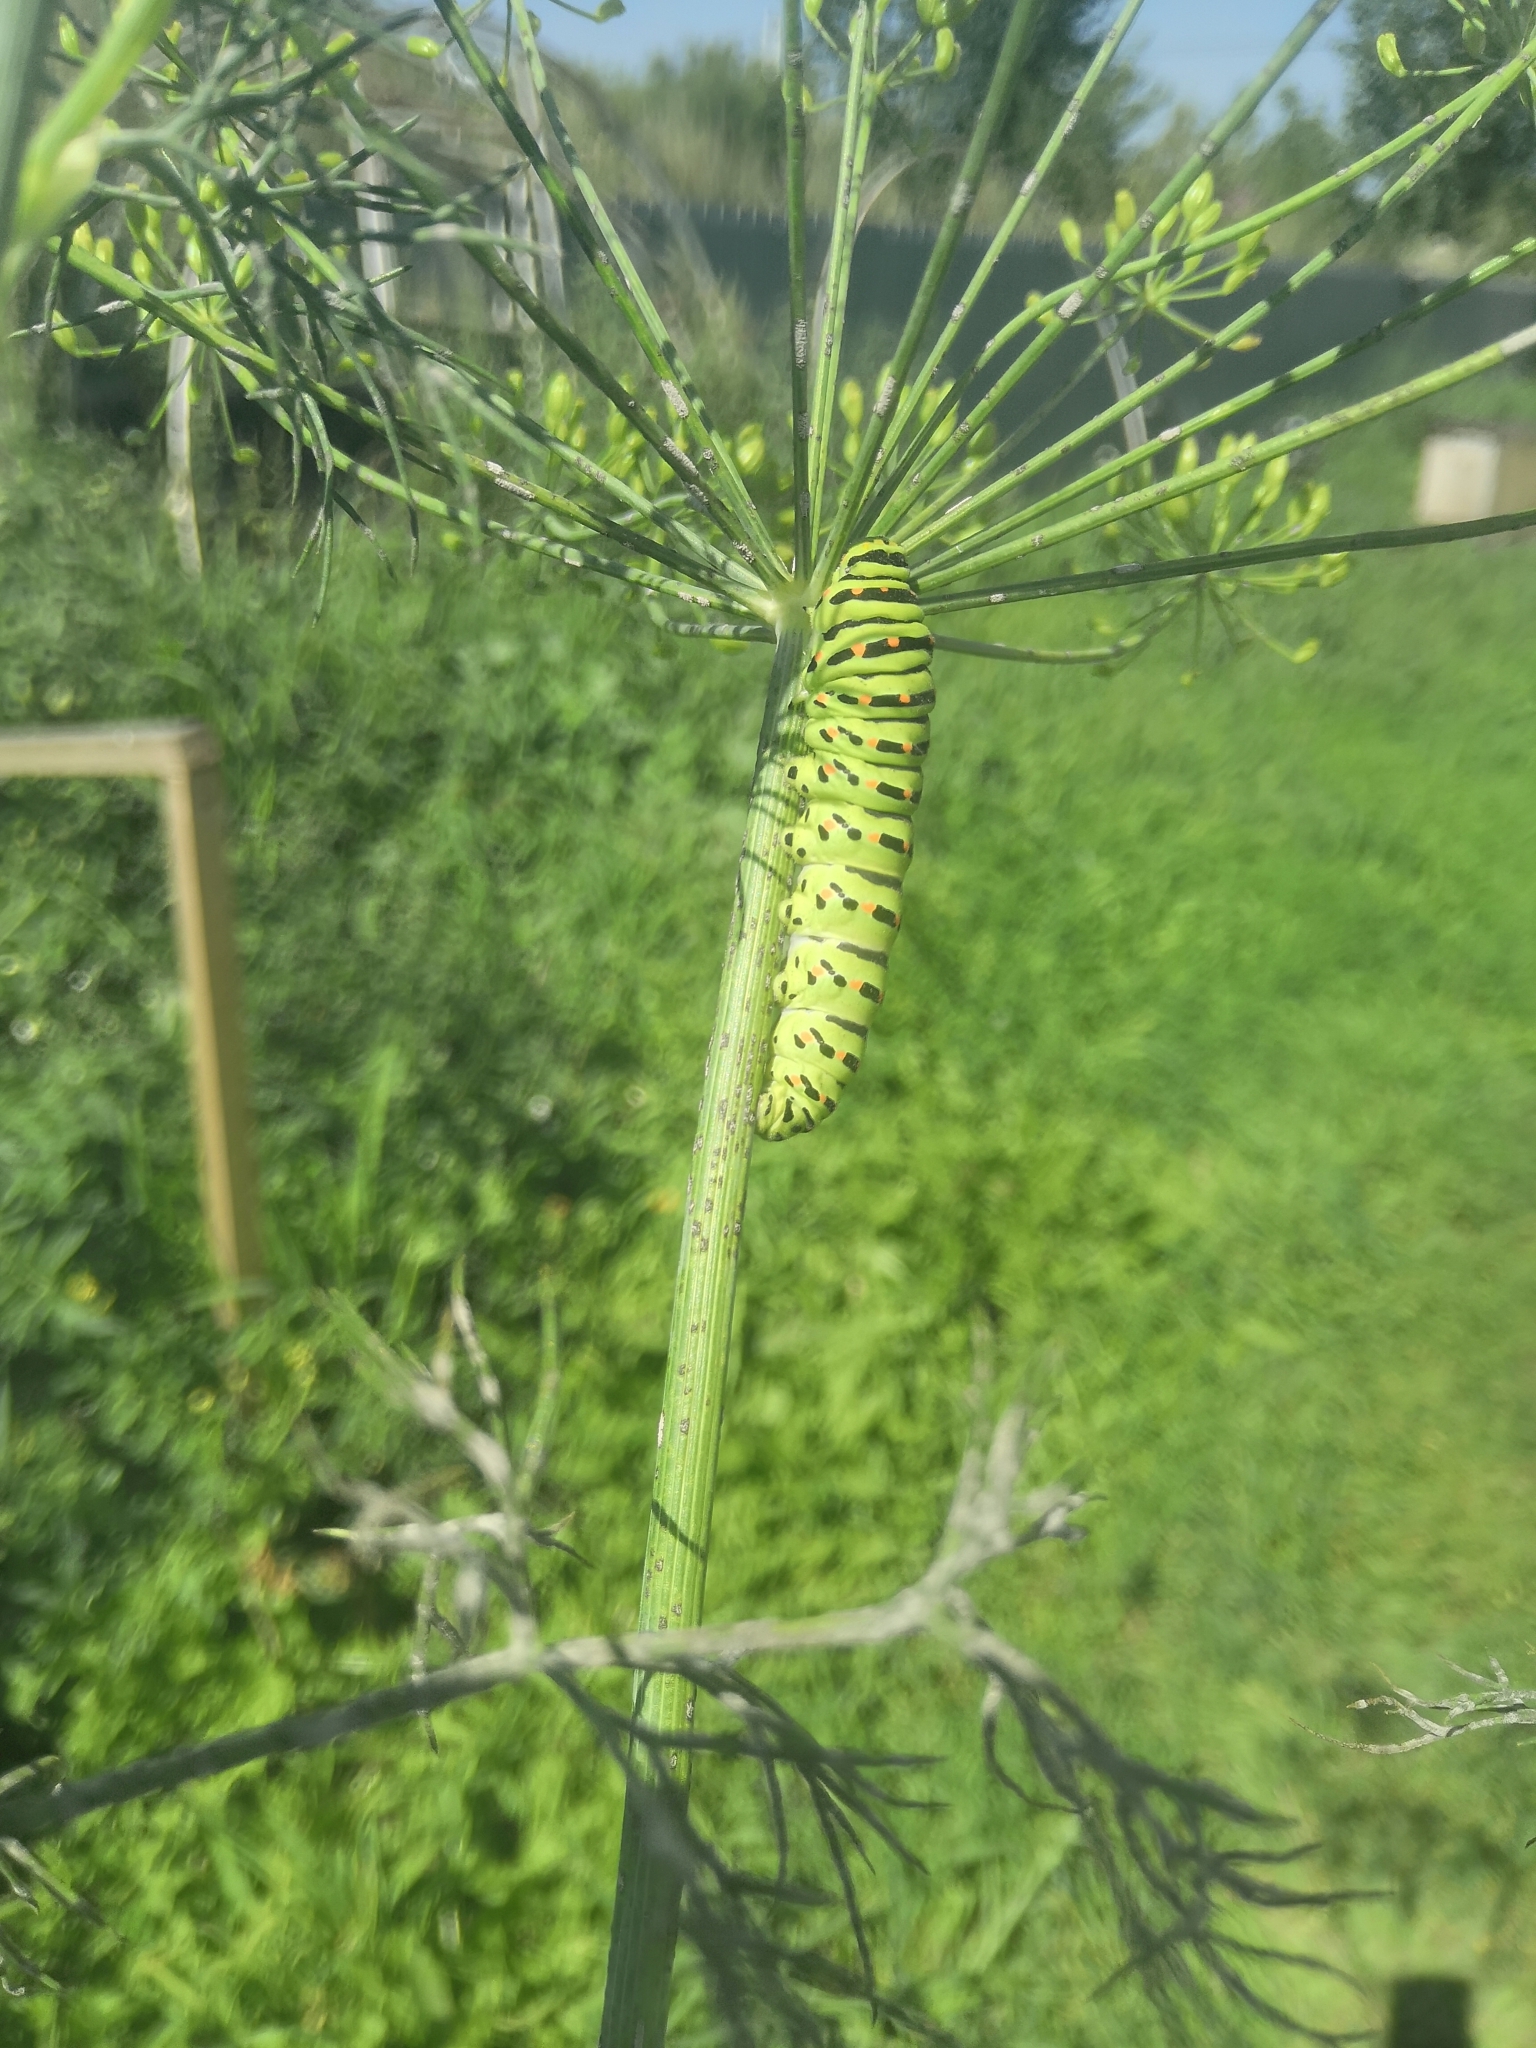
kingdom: Animalia
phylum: Arthropoda
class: Insecta
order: Lepidoptera
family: Papilionidae
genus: Papilio
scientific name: Papilio machaon
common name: Swallowtail
